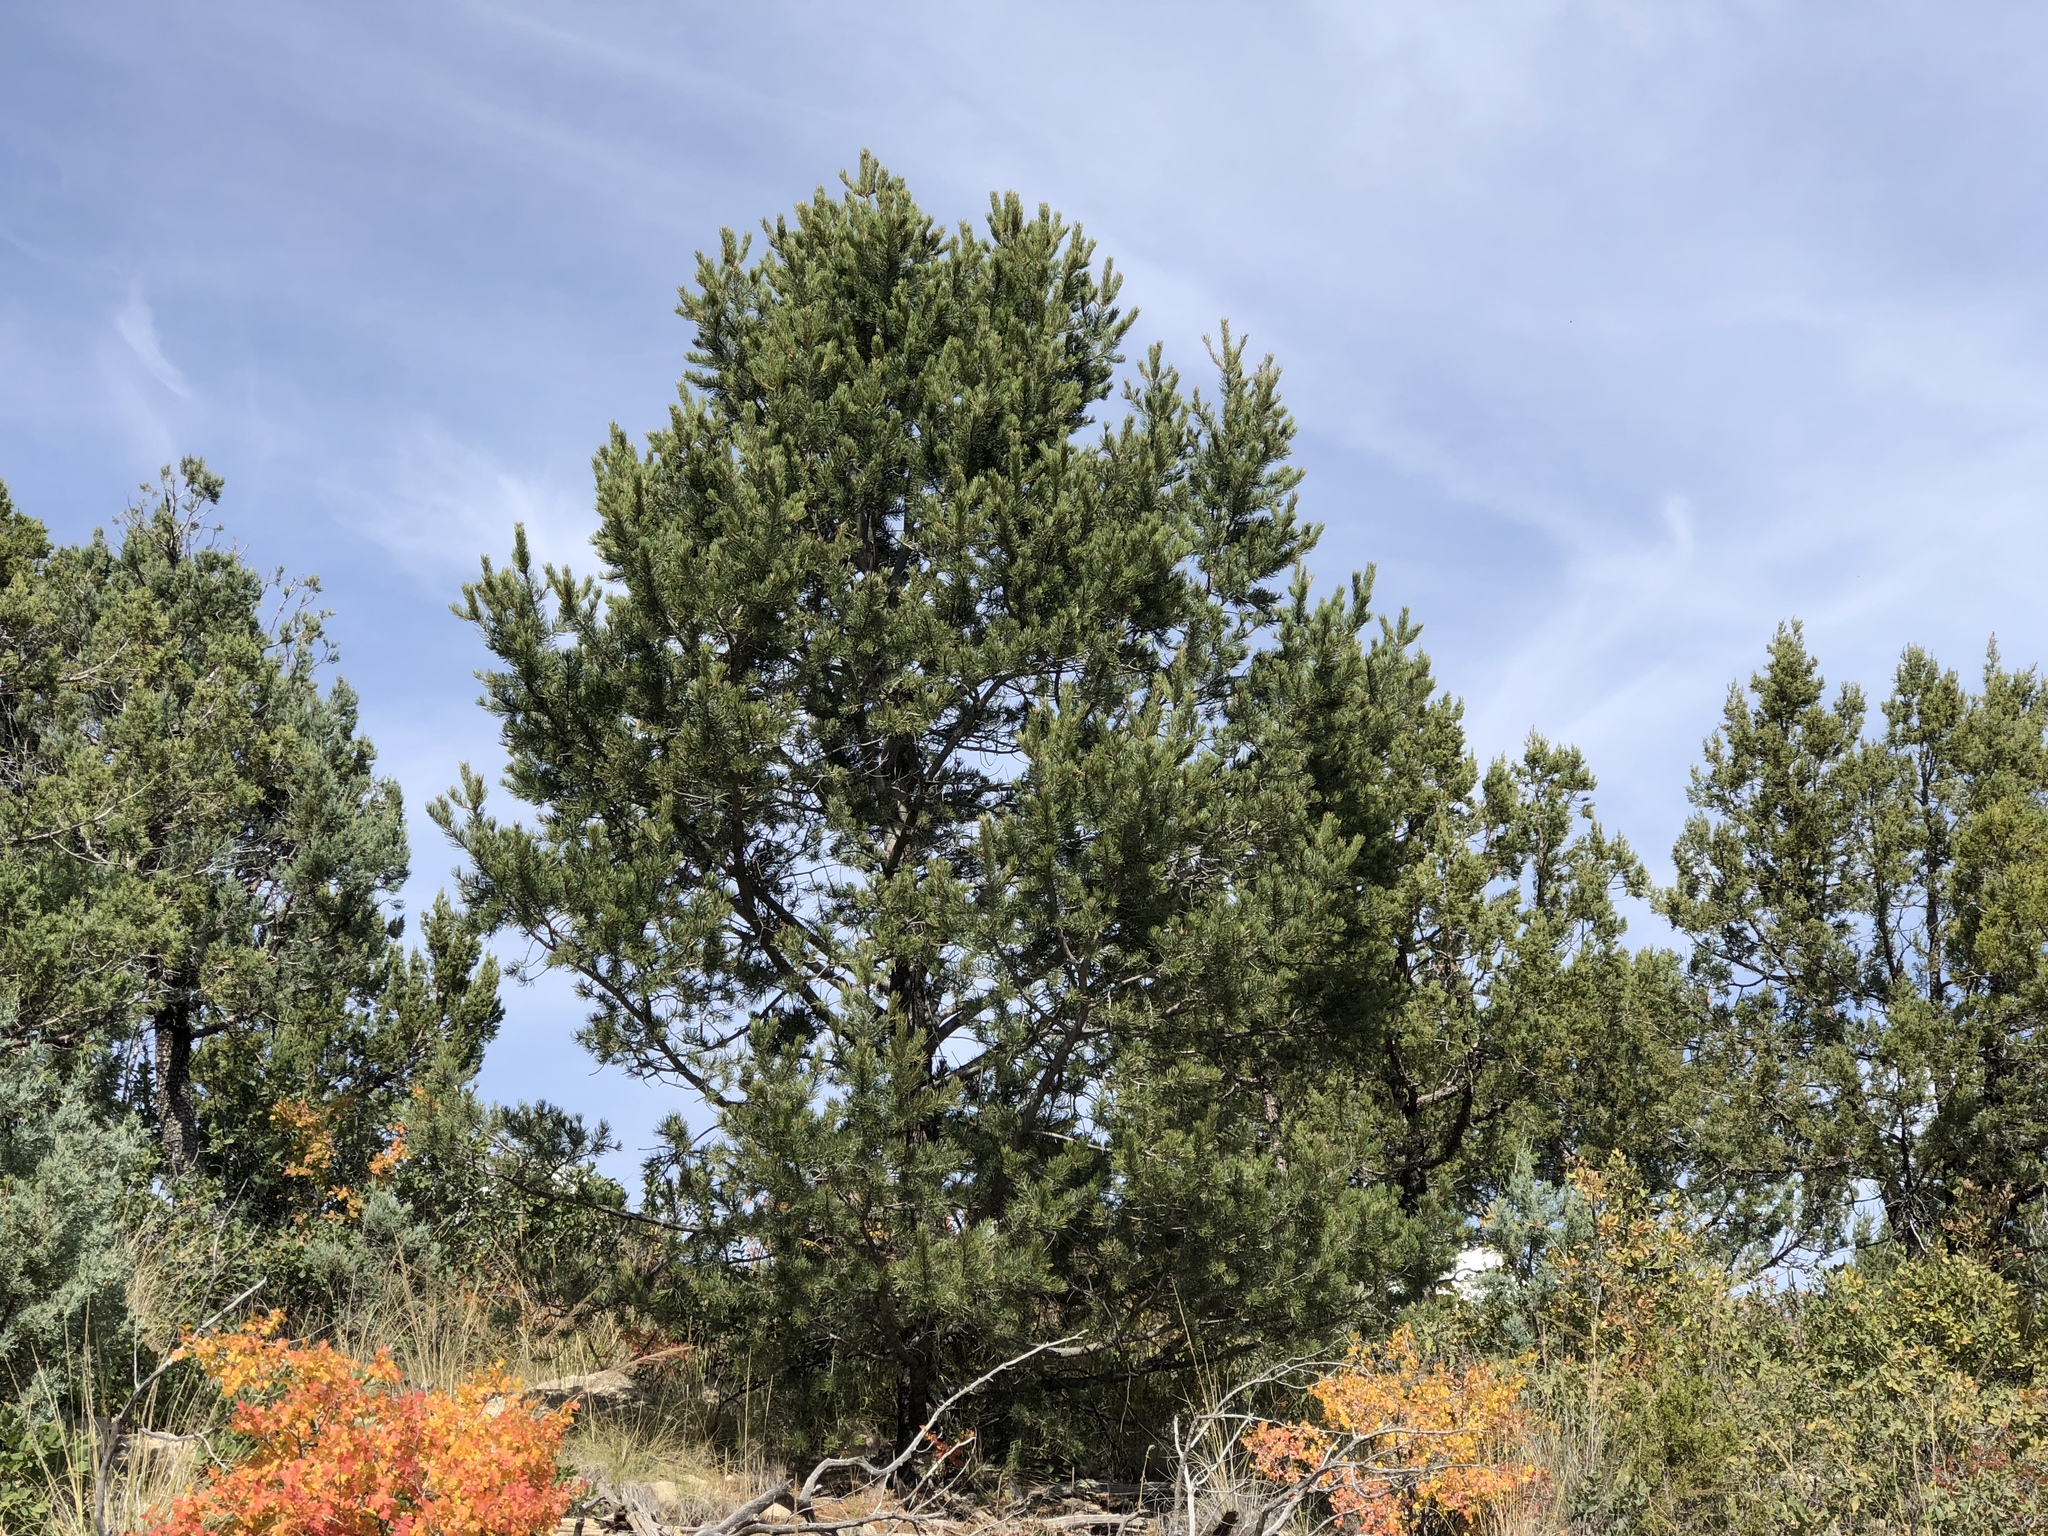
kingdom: Plantae
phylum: Tracheophyta
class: Pinopsida
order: Pinales
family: Pinaceae
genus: Pinus
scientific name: Pinus edulis
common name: Colorado pinyon
